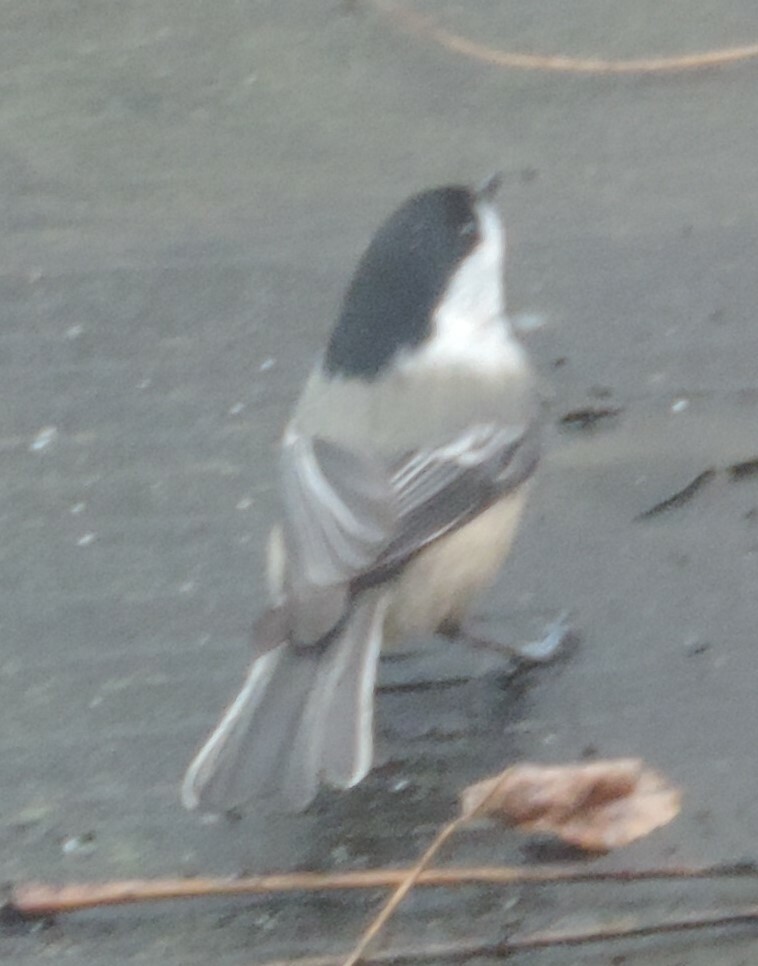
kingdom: Animalia
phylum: Chordata
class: Aves
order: Passeriformes
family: Paridae
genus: Poecile
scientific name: Poecile atricapillus
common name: Black-capped chickadee
